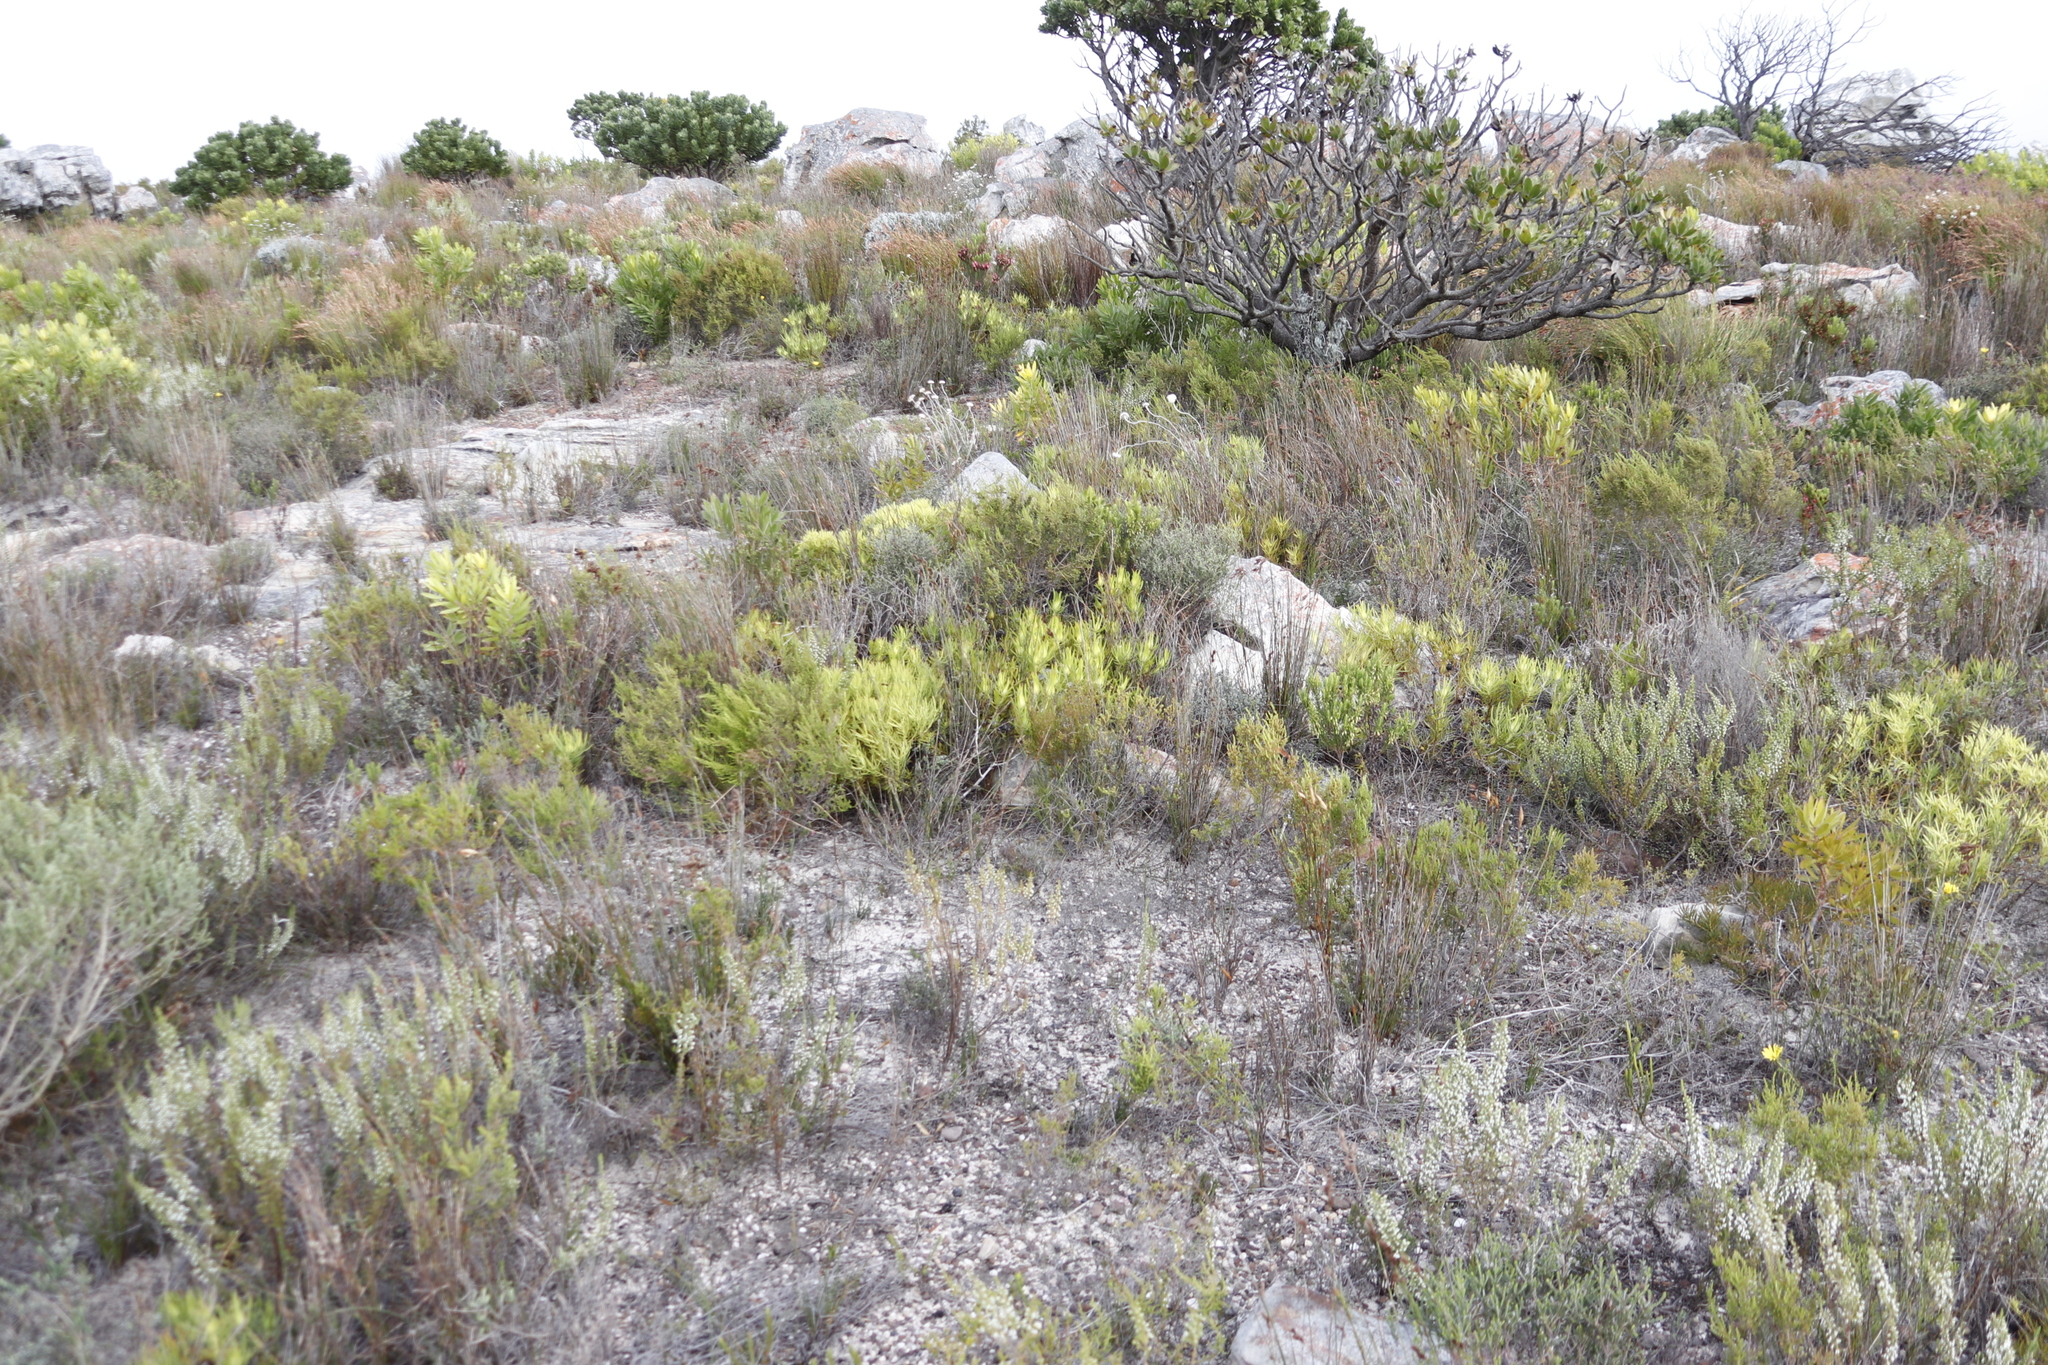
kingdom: Plantae
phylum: Tracheophyta
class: Magnoliopsida
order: Proteales
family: Proteaceae
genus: Leucadendron
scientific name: Leucadendron salignum
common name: Common sunshine conebush
